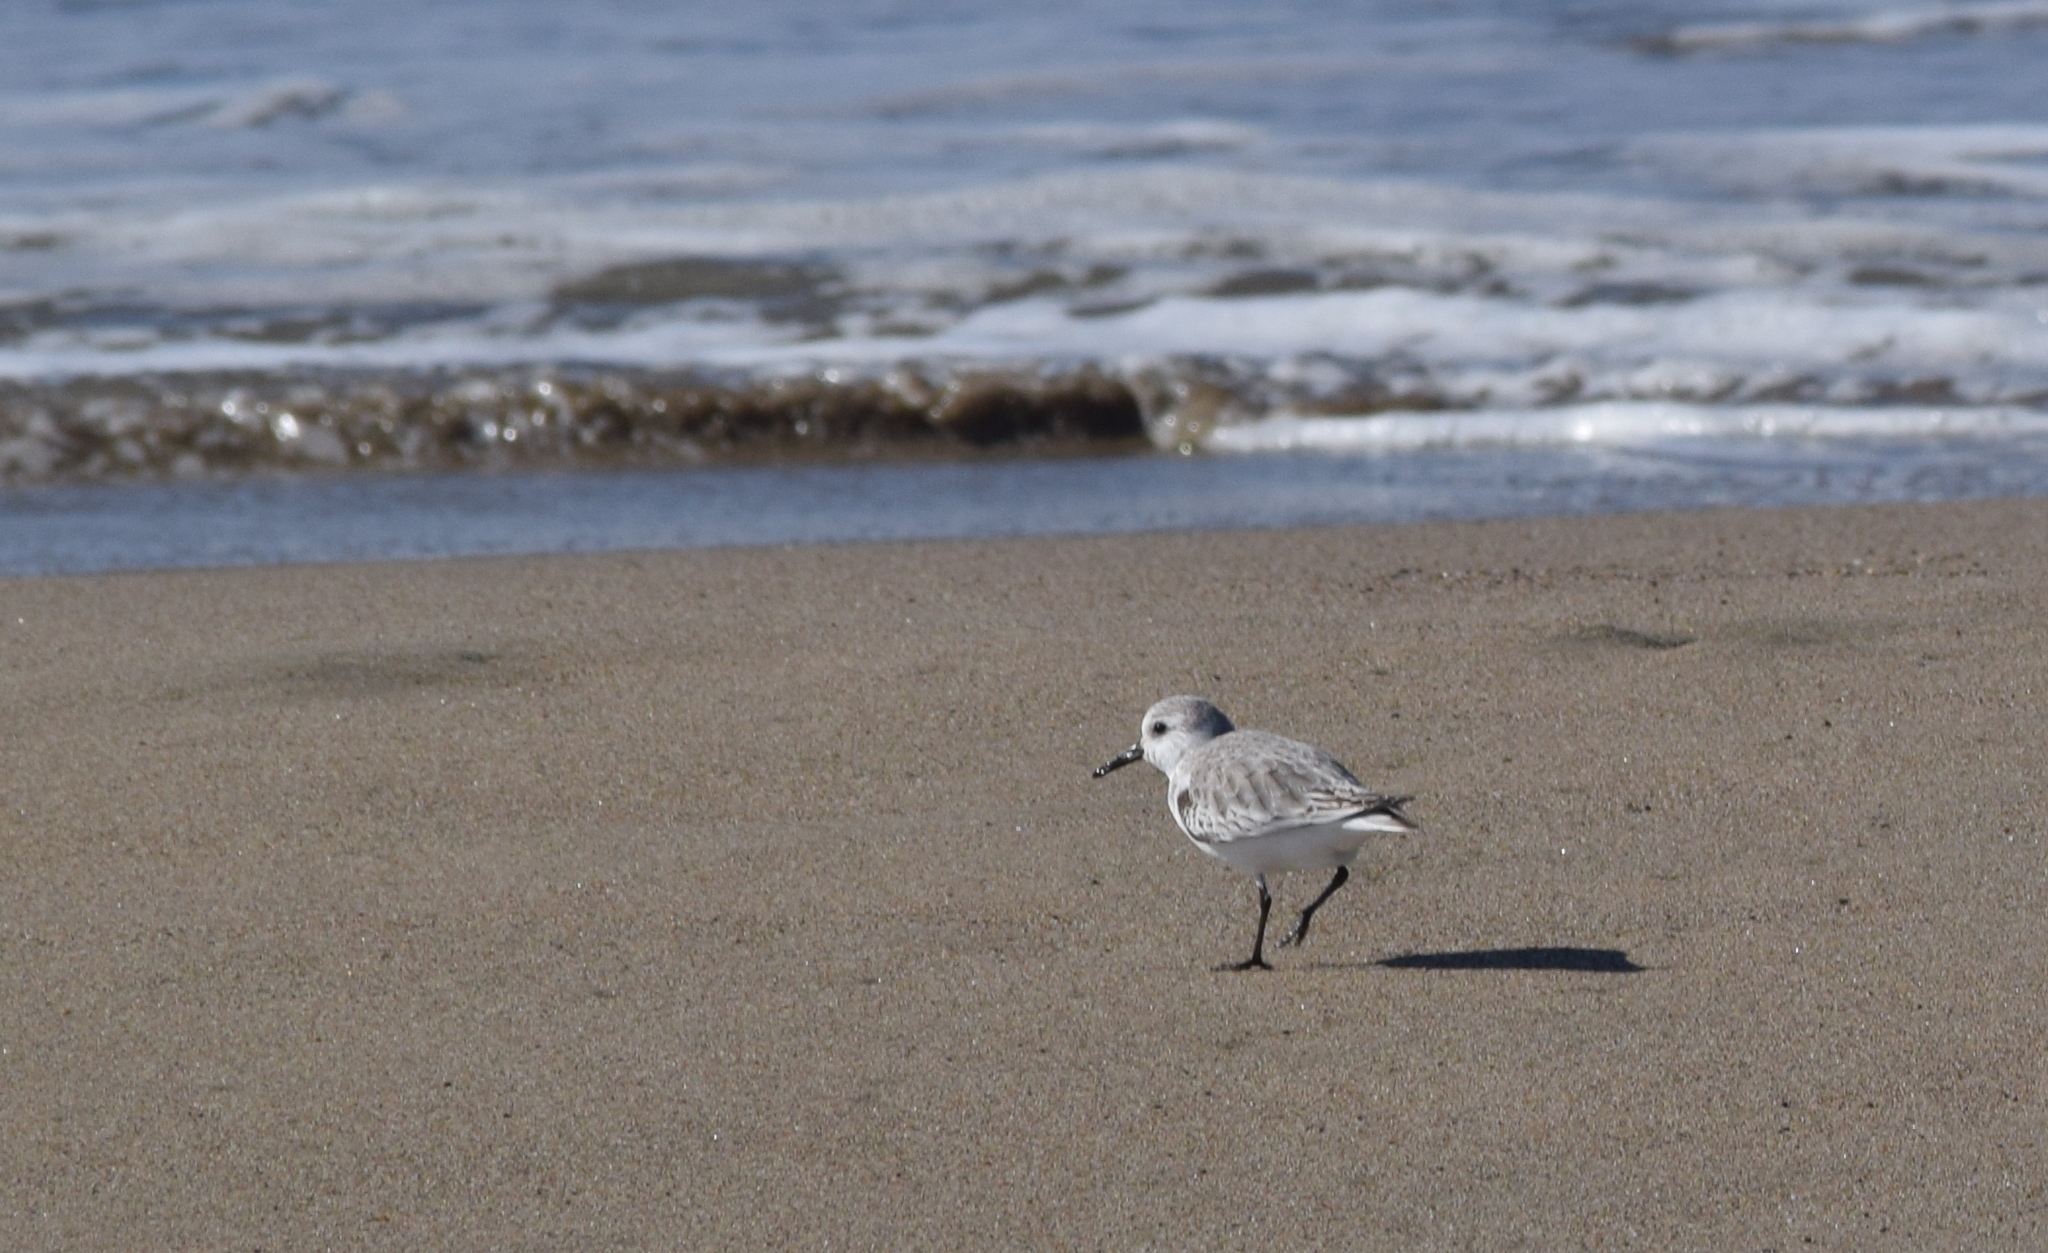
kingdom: Animalia
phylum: Chordata
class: Aves
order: Charadriiformes
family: Scolopacidae
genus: Calidris
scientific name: Calidris alba
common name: Sanderling
